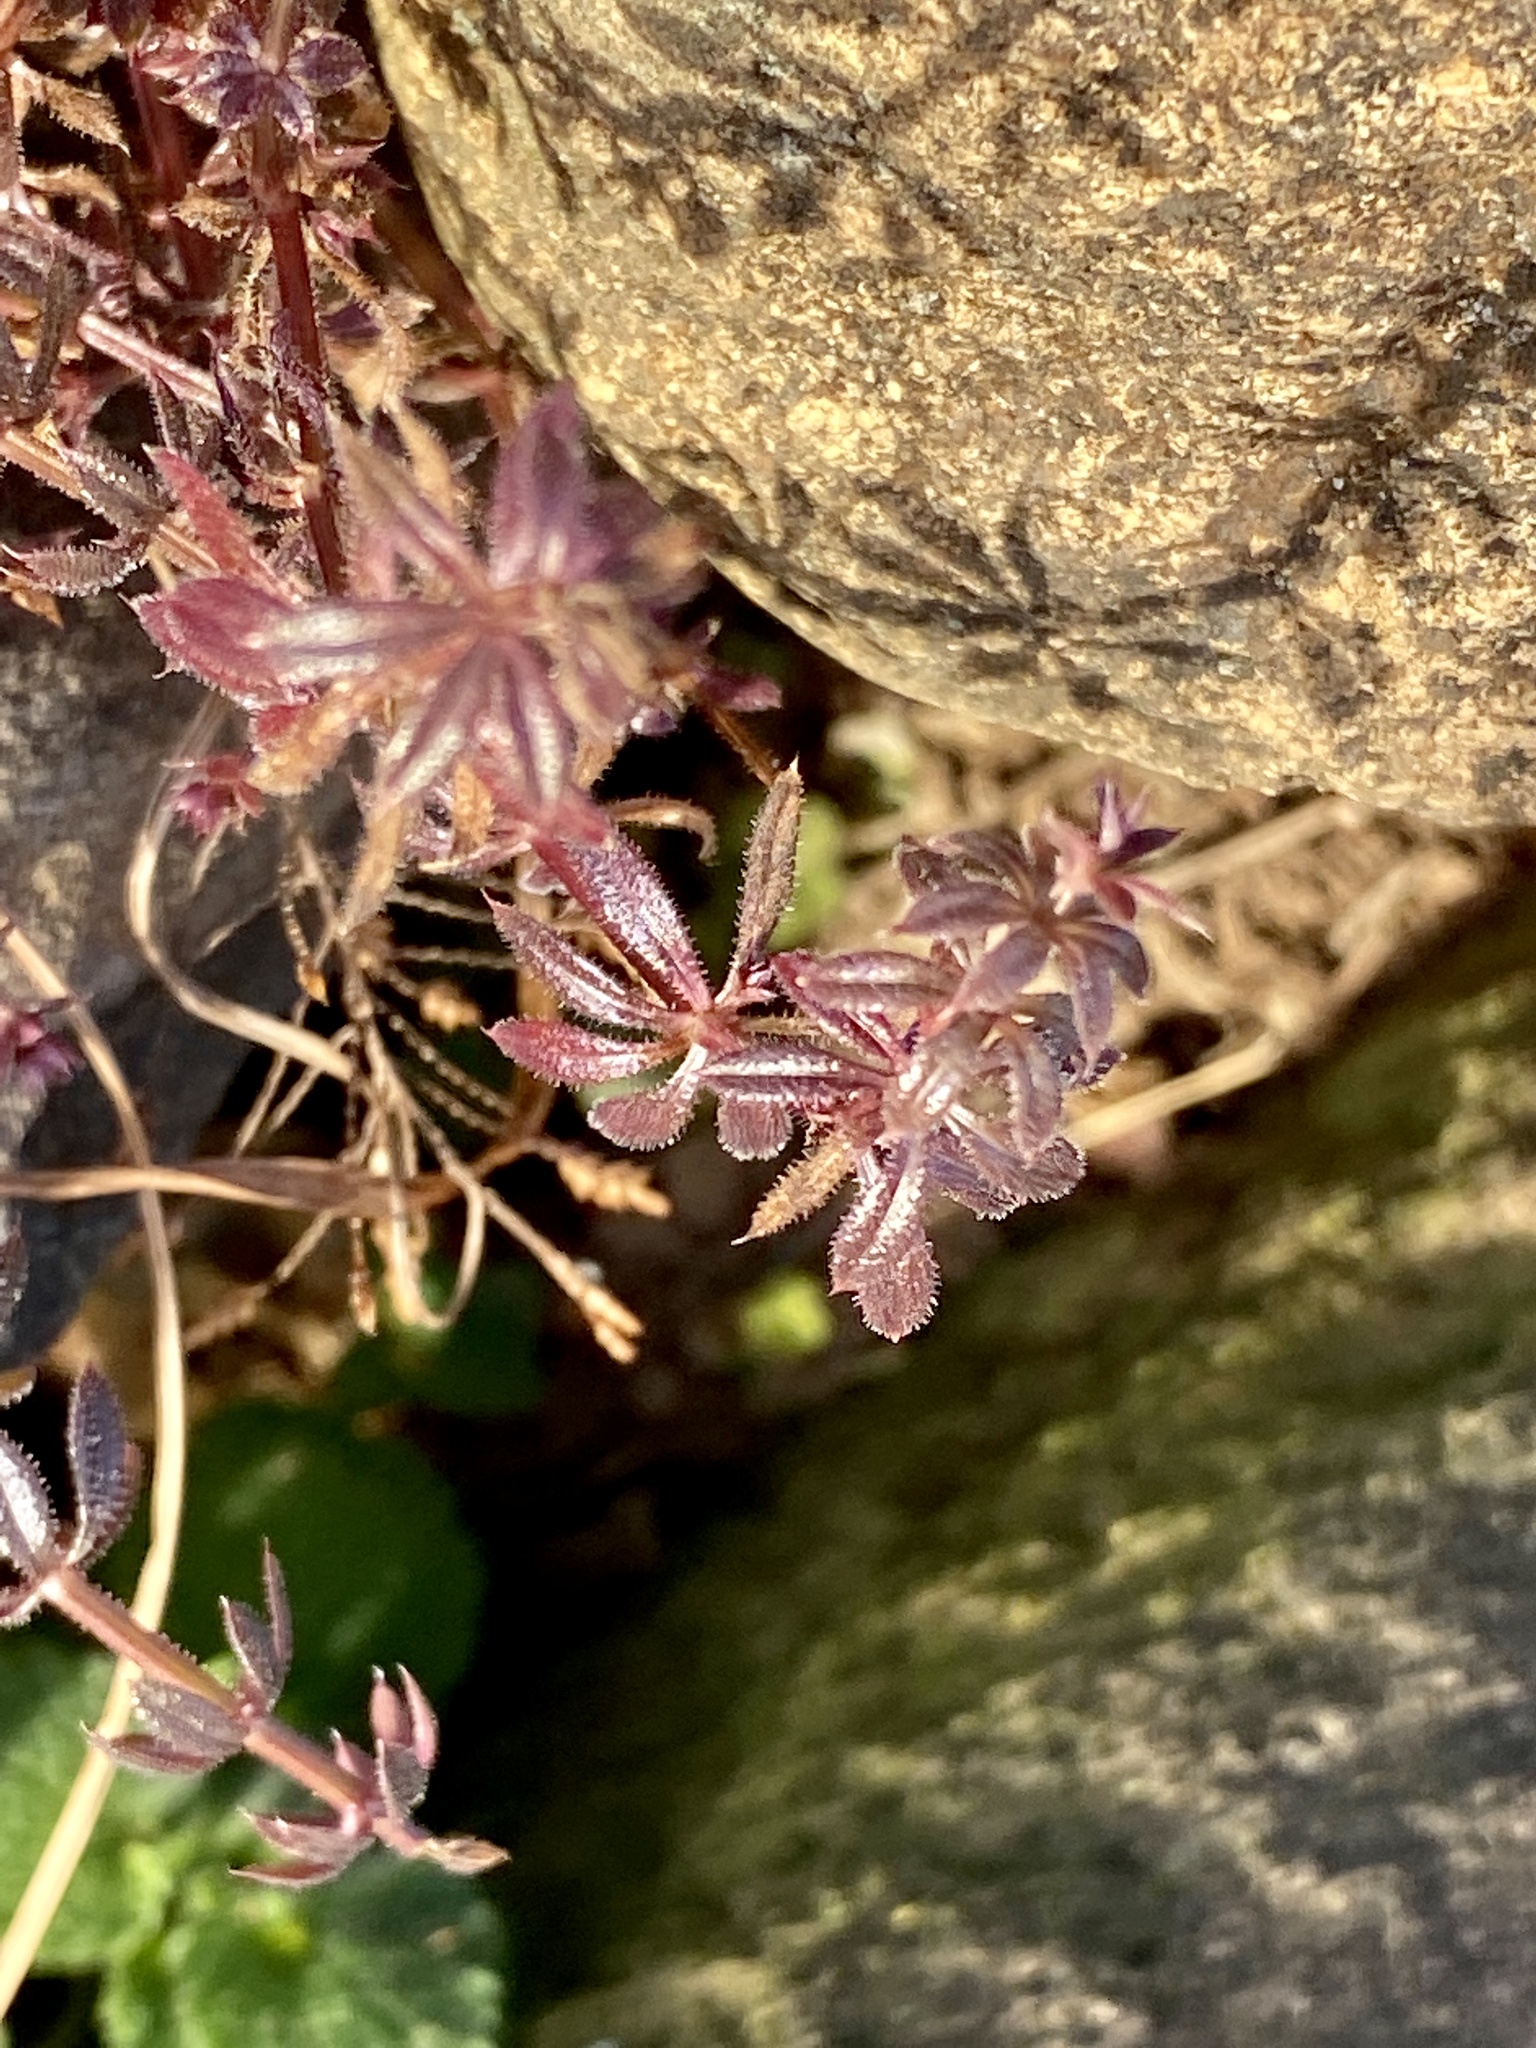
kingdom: Plantae
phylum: Tracheophyta
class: Magnoliopsida
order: Gentianales
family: Rubiaceae
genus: Galium
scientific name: Galium aparine
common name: Cleavers
